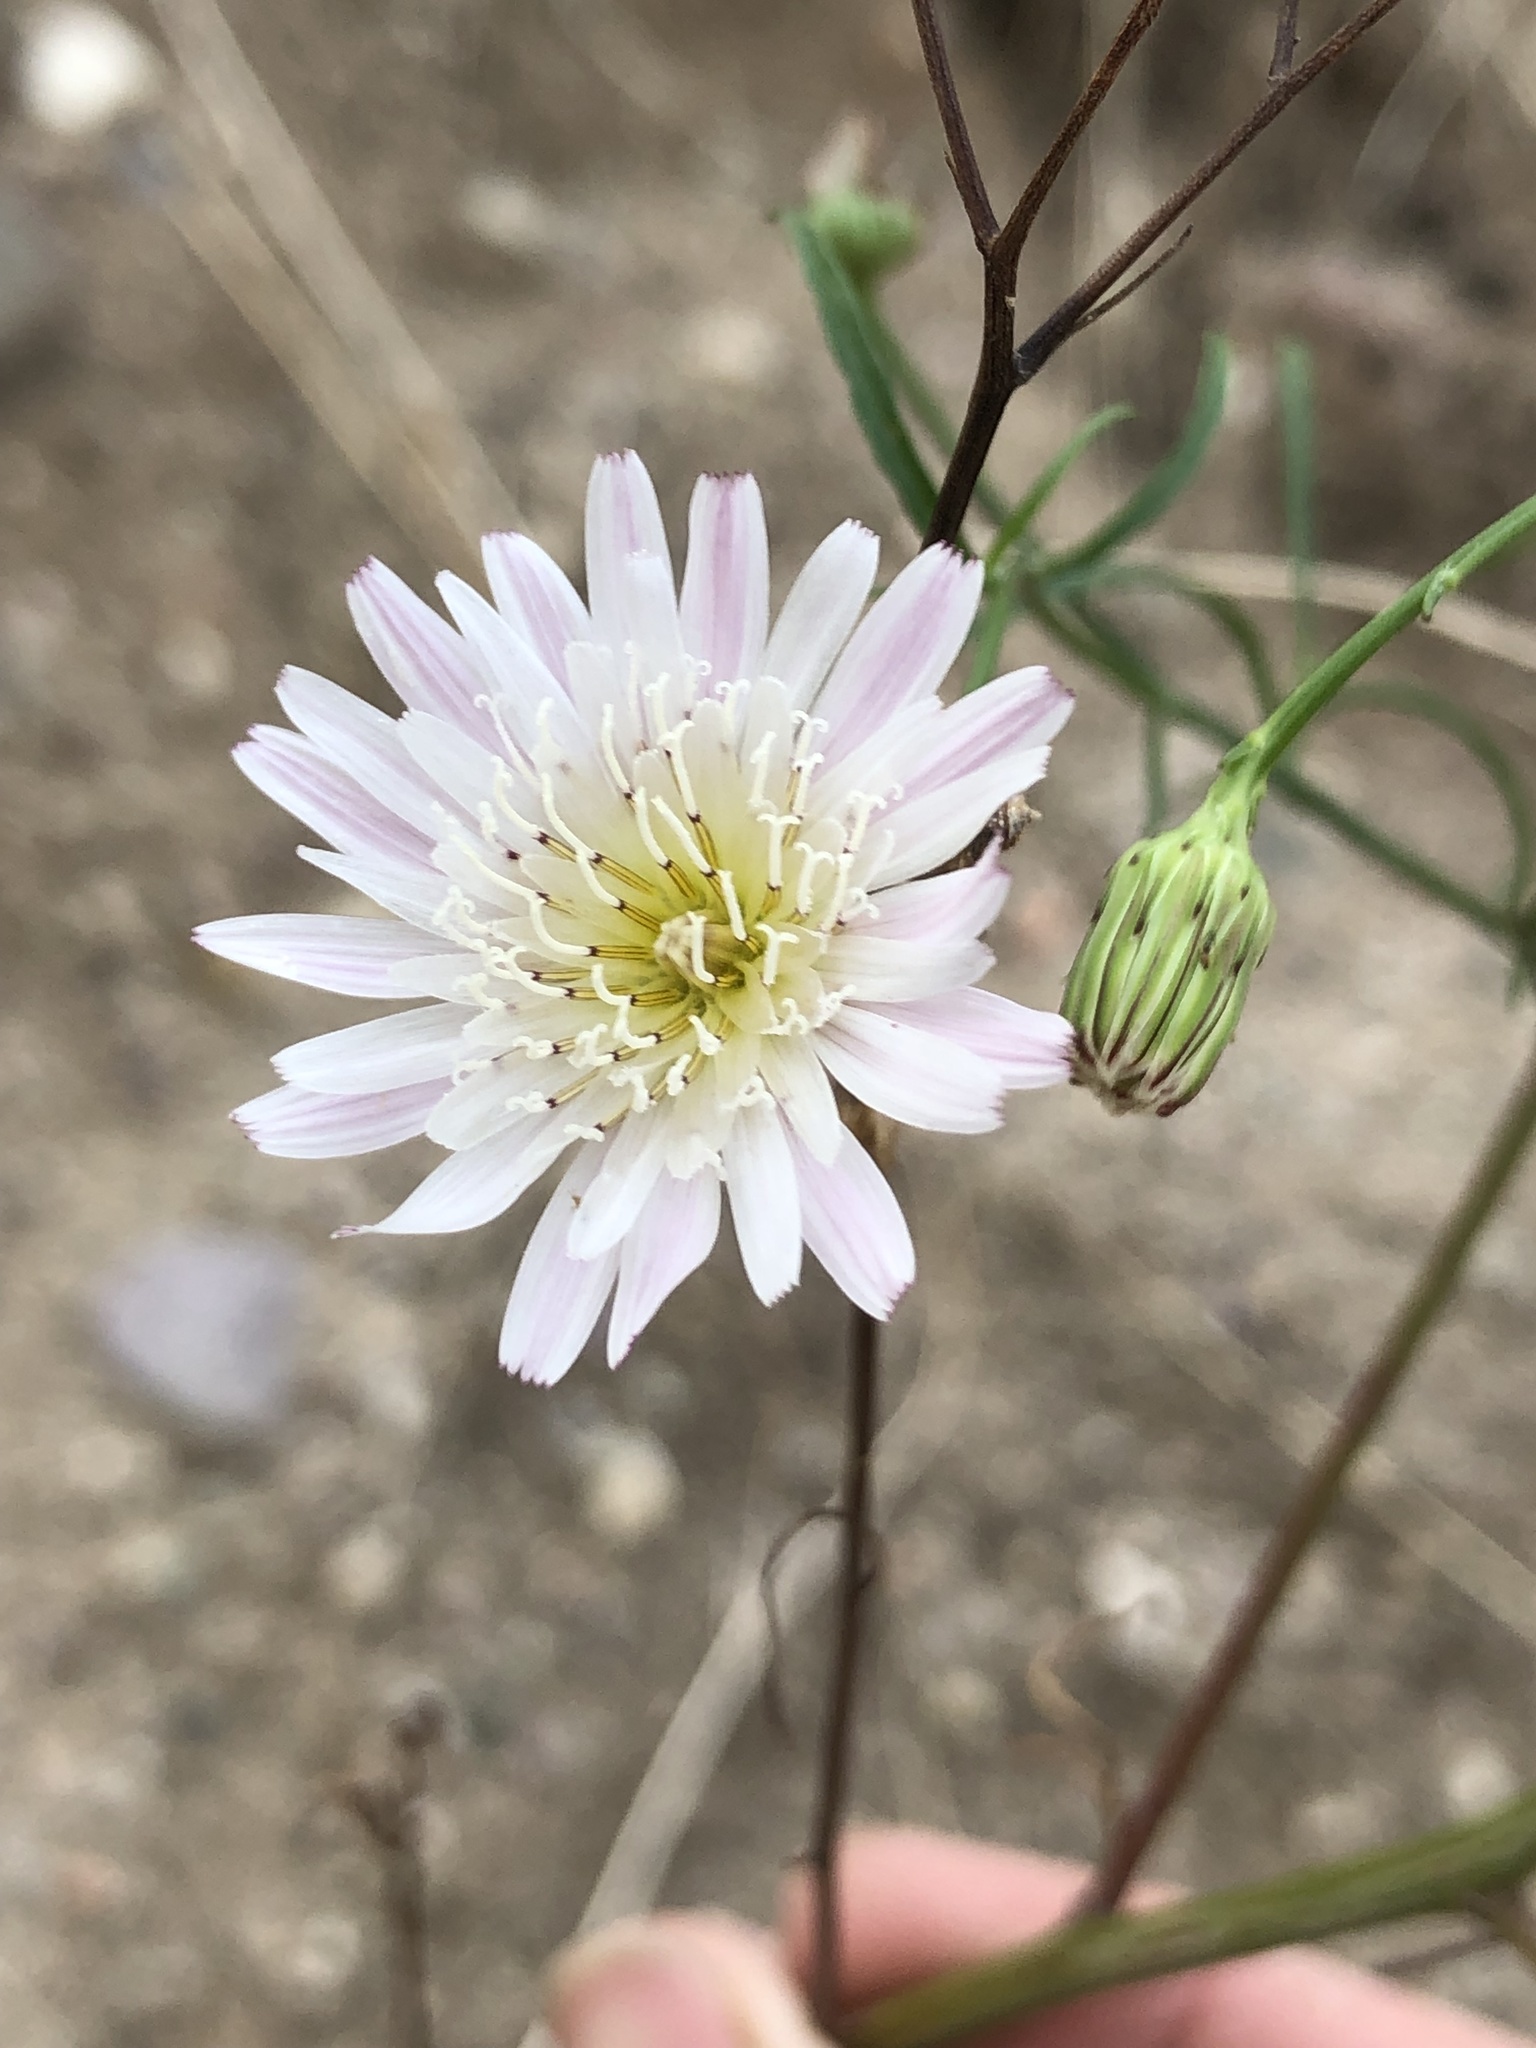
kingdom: Plantae
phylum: Tracheophyta
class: Magnoliopsida
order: Asterales
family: Asteraceae
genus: Malacothrix
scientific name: Malacothrix saxatilis
